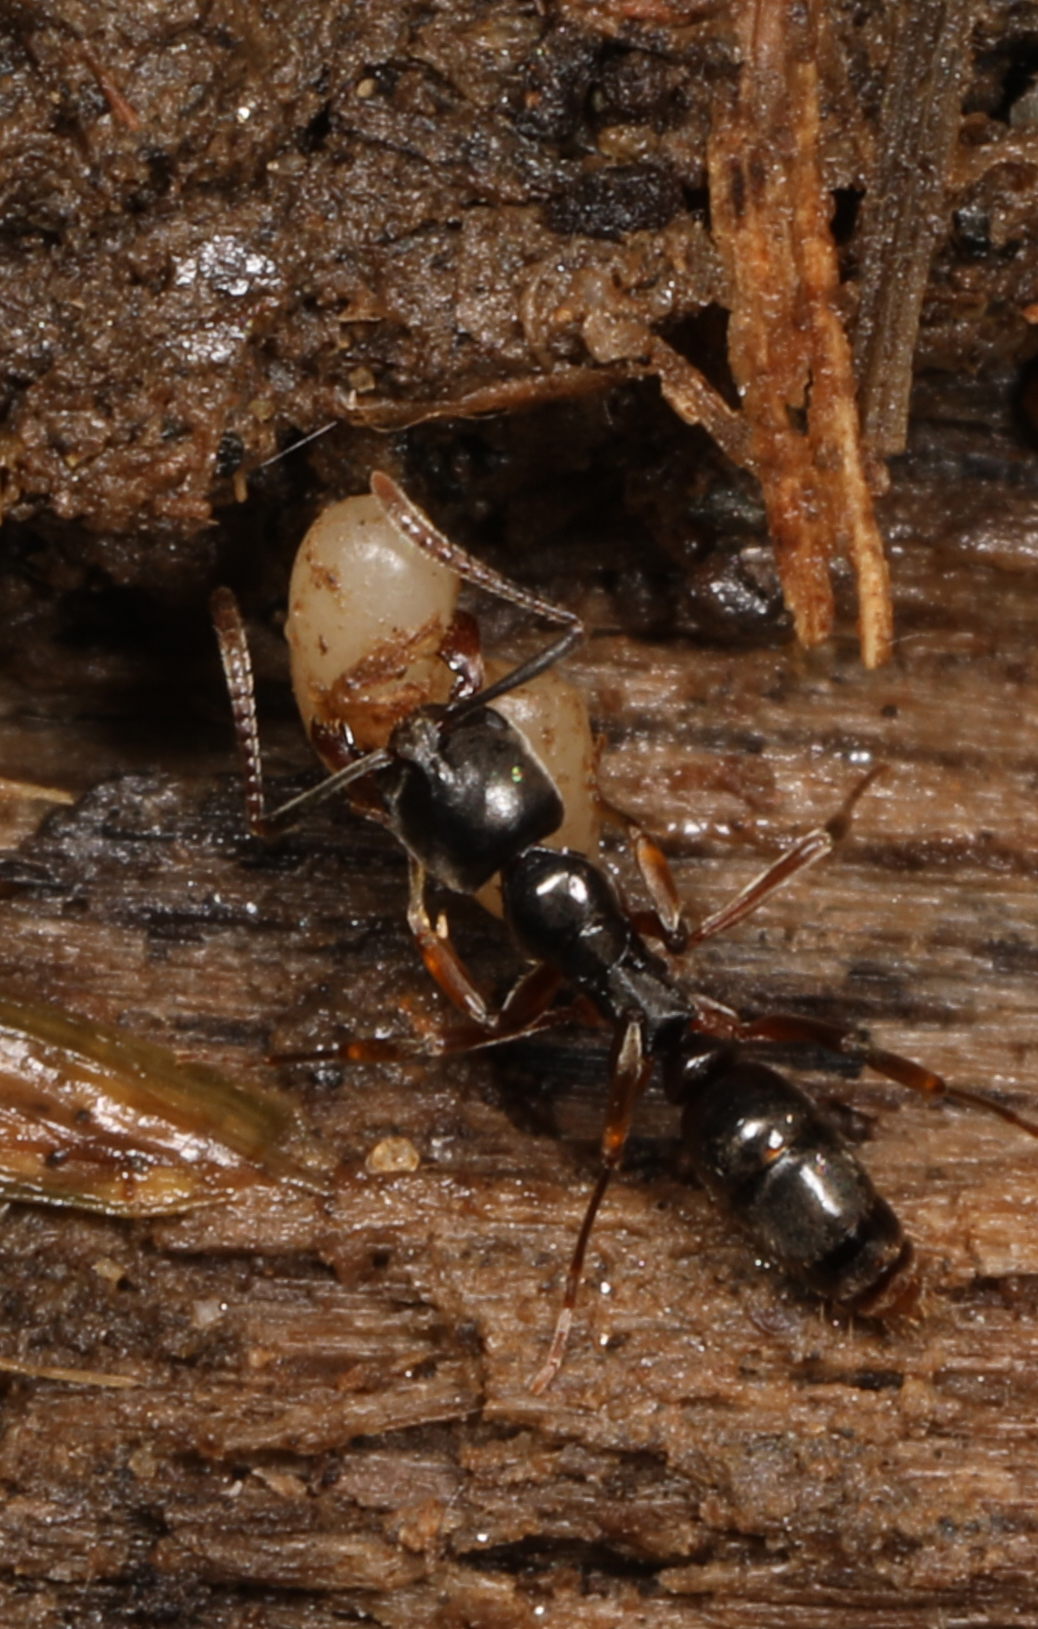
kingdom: Animalia
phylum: Arthropoda
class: Insecta
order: Hymenoptera
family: Formicidae
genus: Pachycondyla
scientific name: Pachycondyla chinensis
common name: Asian needle ant
